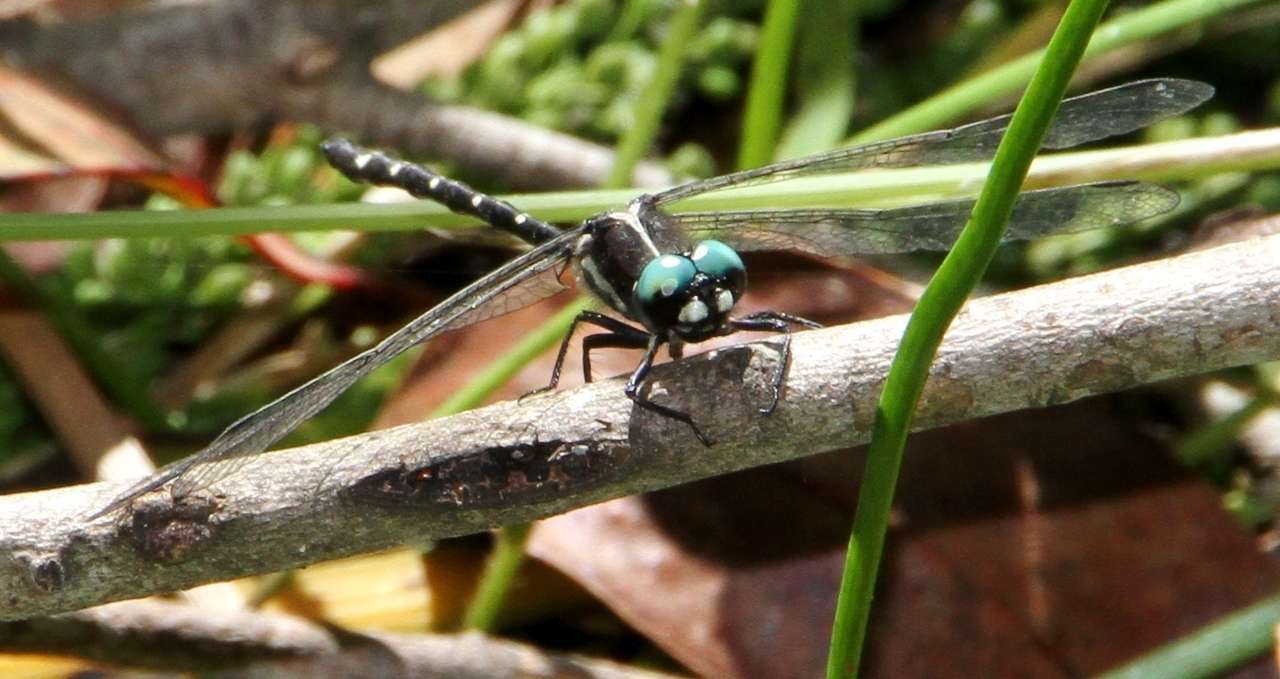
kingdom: Animalia
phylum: Arthropoda
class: Insecta
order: Odonata
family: Synthemistidae
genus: Eusynthemis
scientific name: Eusynthemis guttata
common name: Southern tigertail
